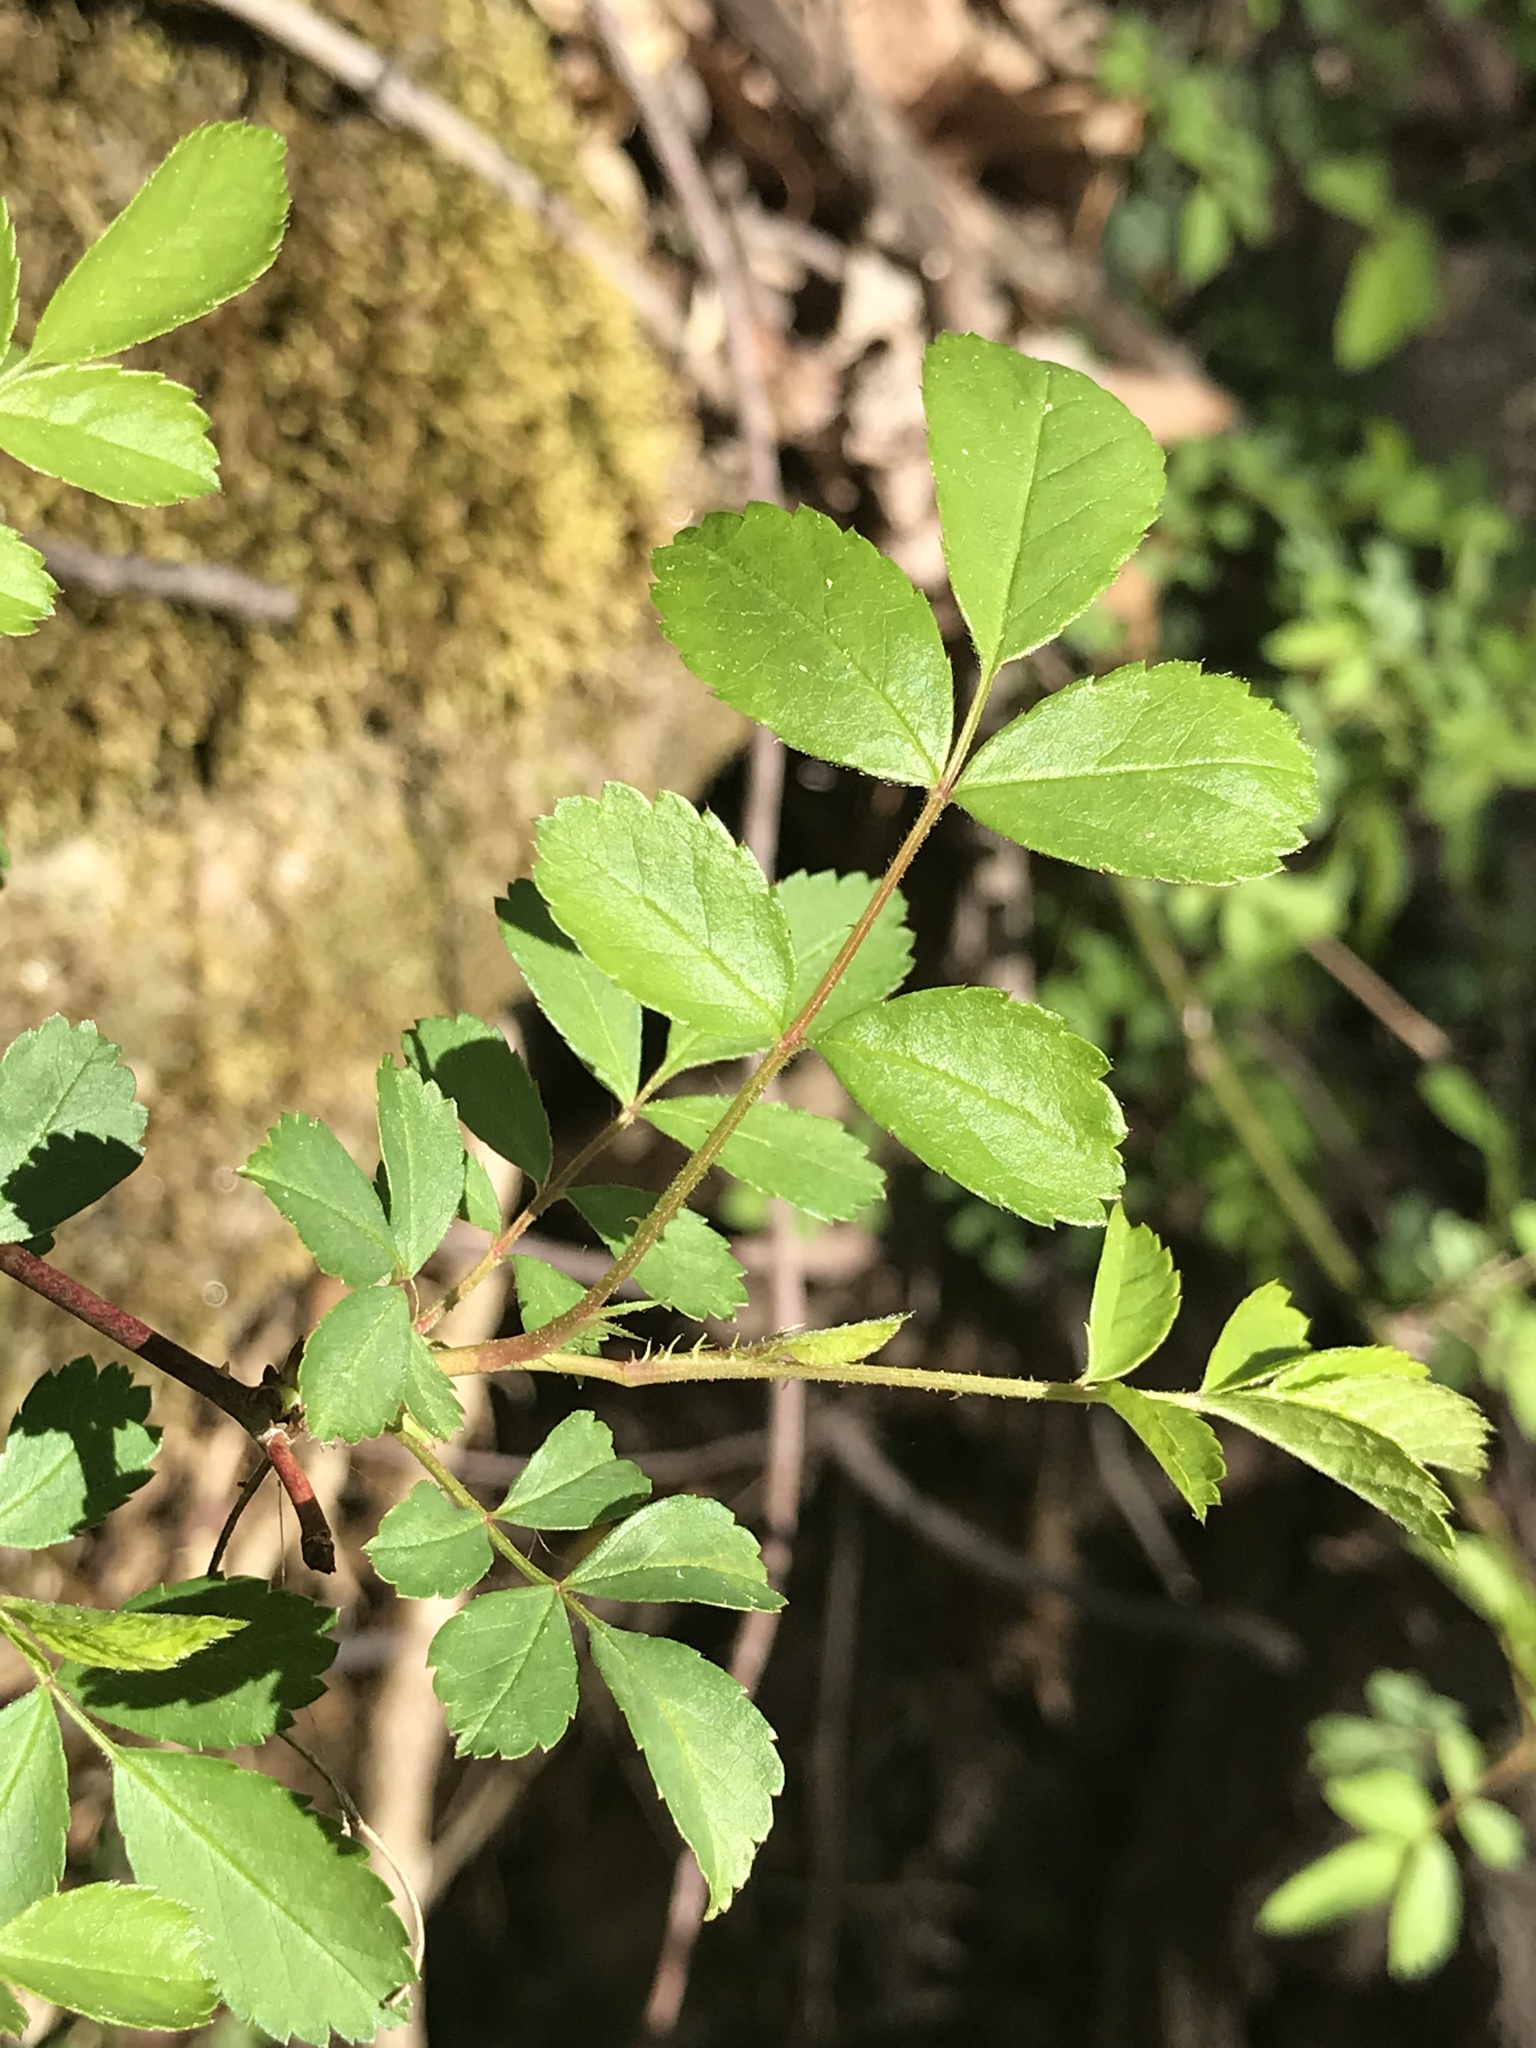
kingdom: Plantae
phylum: Tracheophyta
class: Magnoliopsida
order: Rosales
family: Rosaceae
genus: Rosa
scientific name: Rosa multiflora
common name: Multiflora rose
